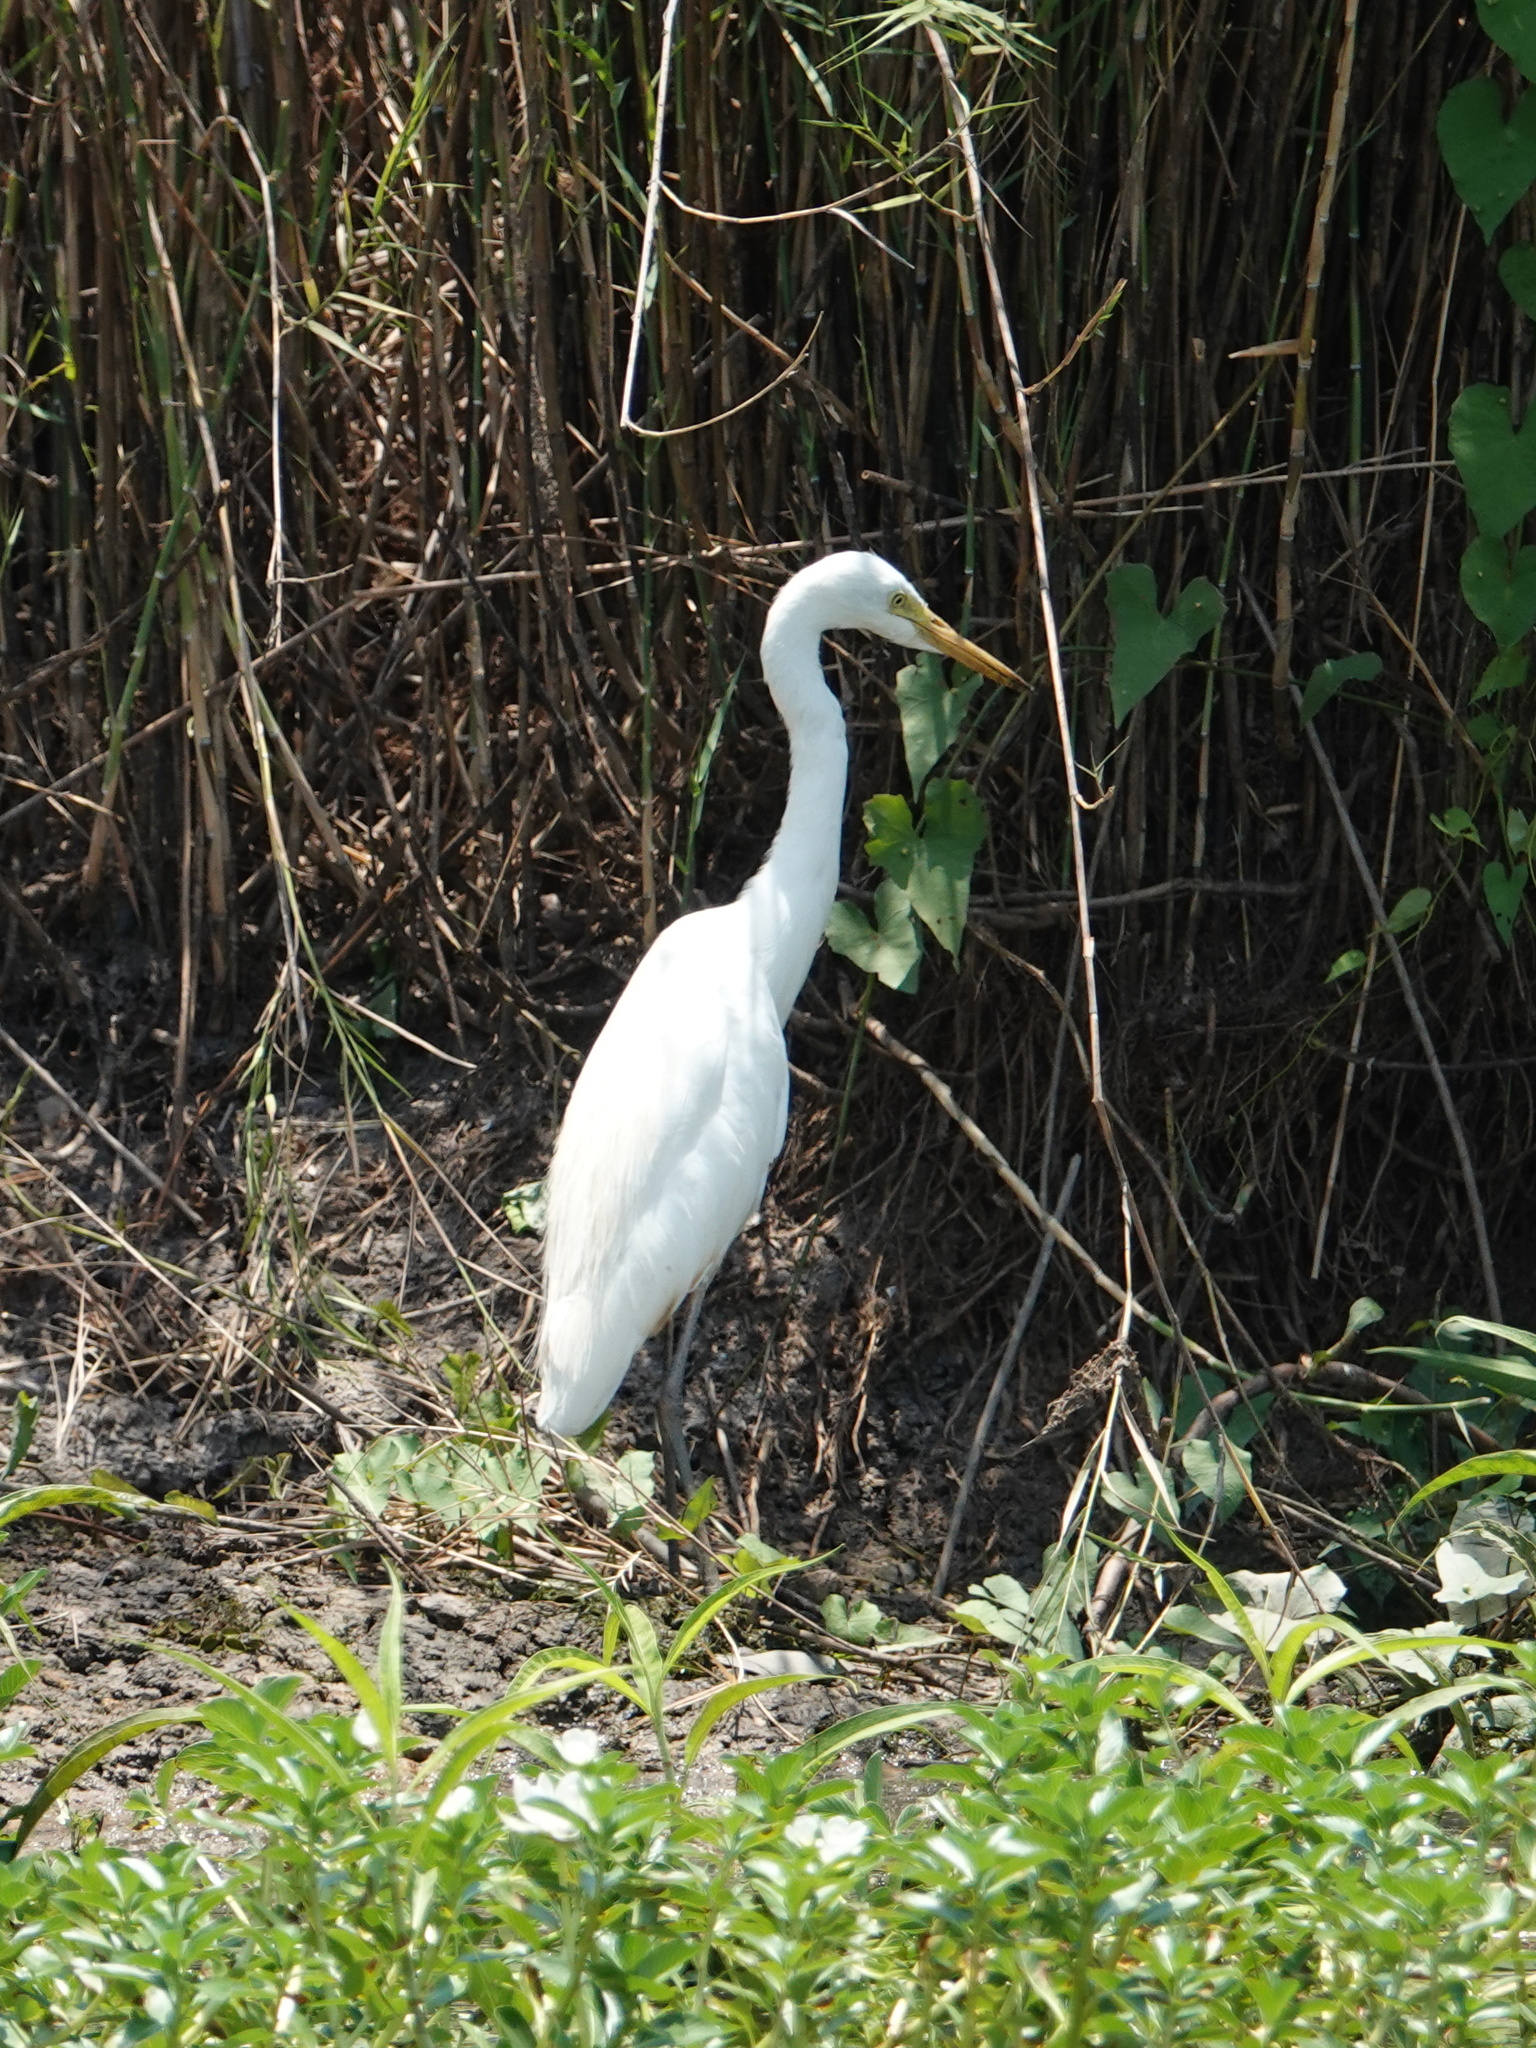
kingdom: Animalia
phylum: Chordata
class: Aves
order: Pelecaniformes
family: Ardeidae
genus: Egretta
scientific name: Egretta intermedia
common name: Intermediate egret
